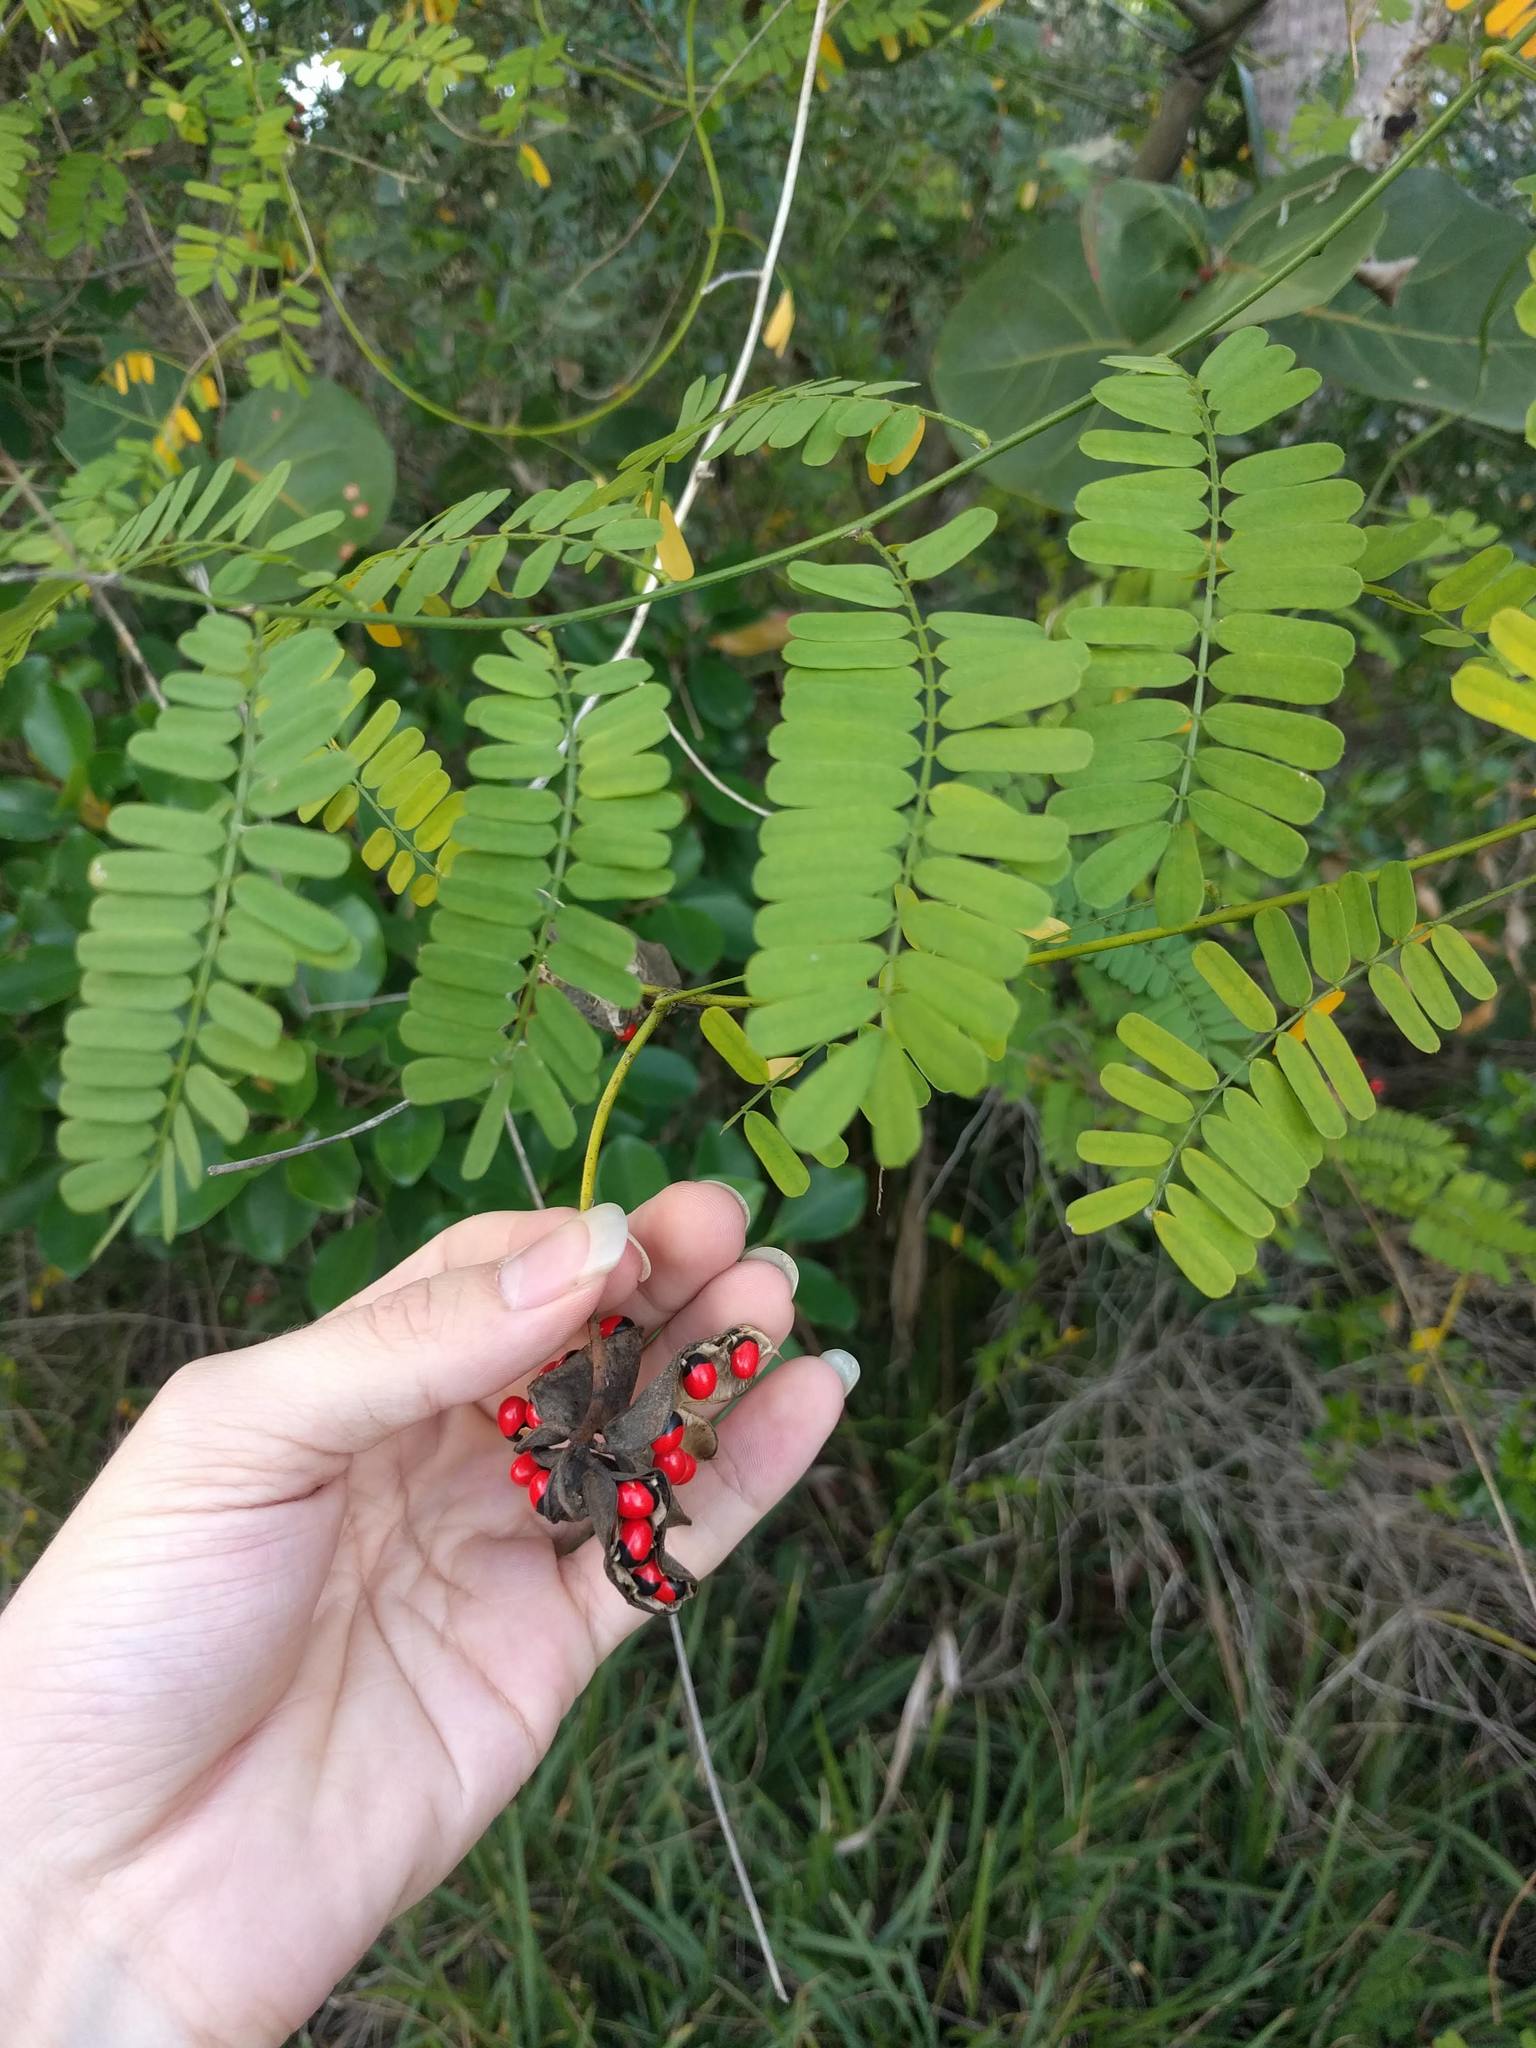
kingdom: Plantae
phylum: Tracheophyta
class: Magnoliopsida
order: Fabales
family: Fabaceae
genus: Abrus
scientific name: Abrus precatorius
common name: Rosarypea
